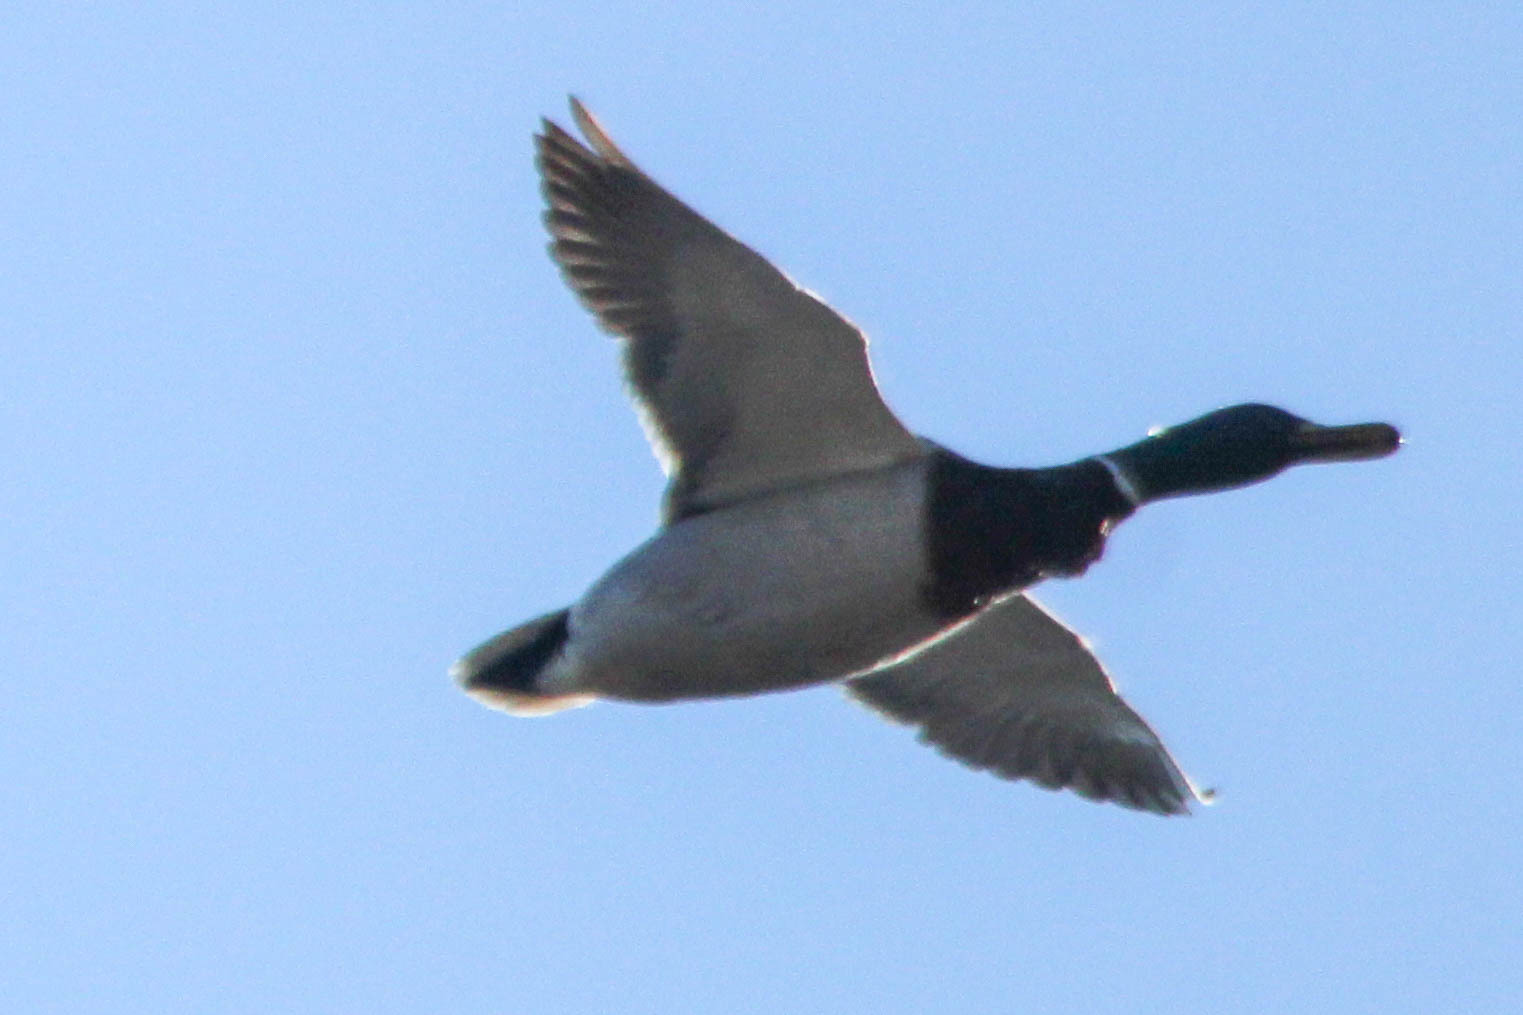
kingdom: Animalia
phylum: Chordata
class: Aves
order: Anseriformes
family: Anatidae
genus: Anas
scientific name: Anas platyrhynchos
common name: Mallard
